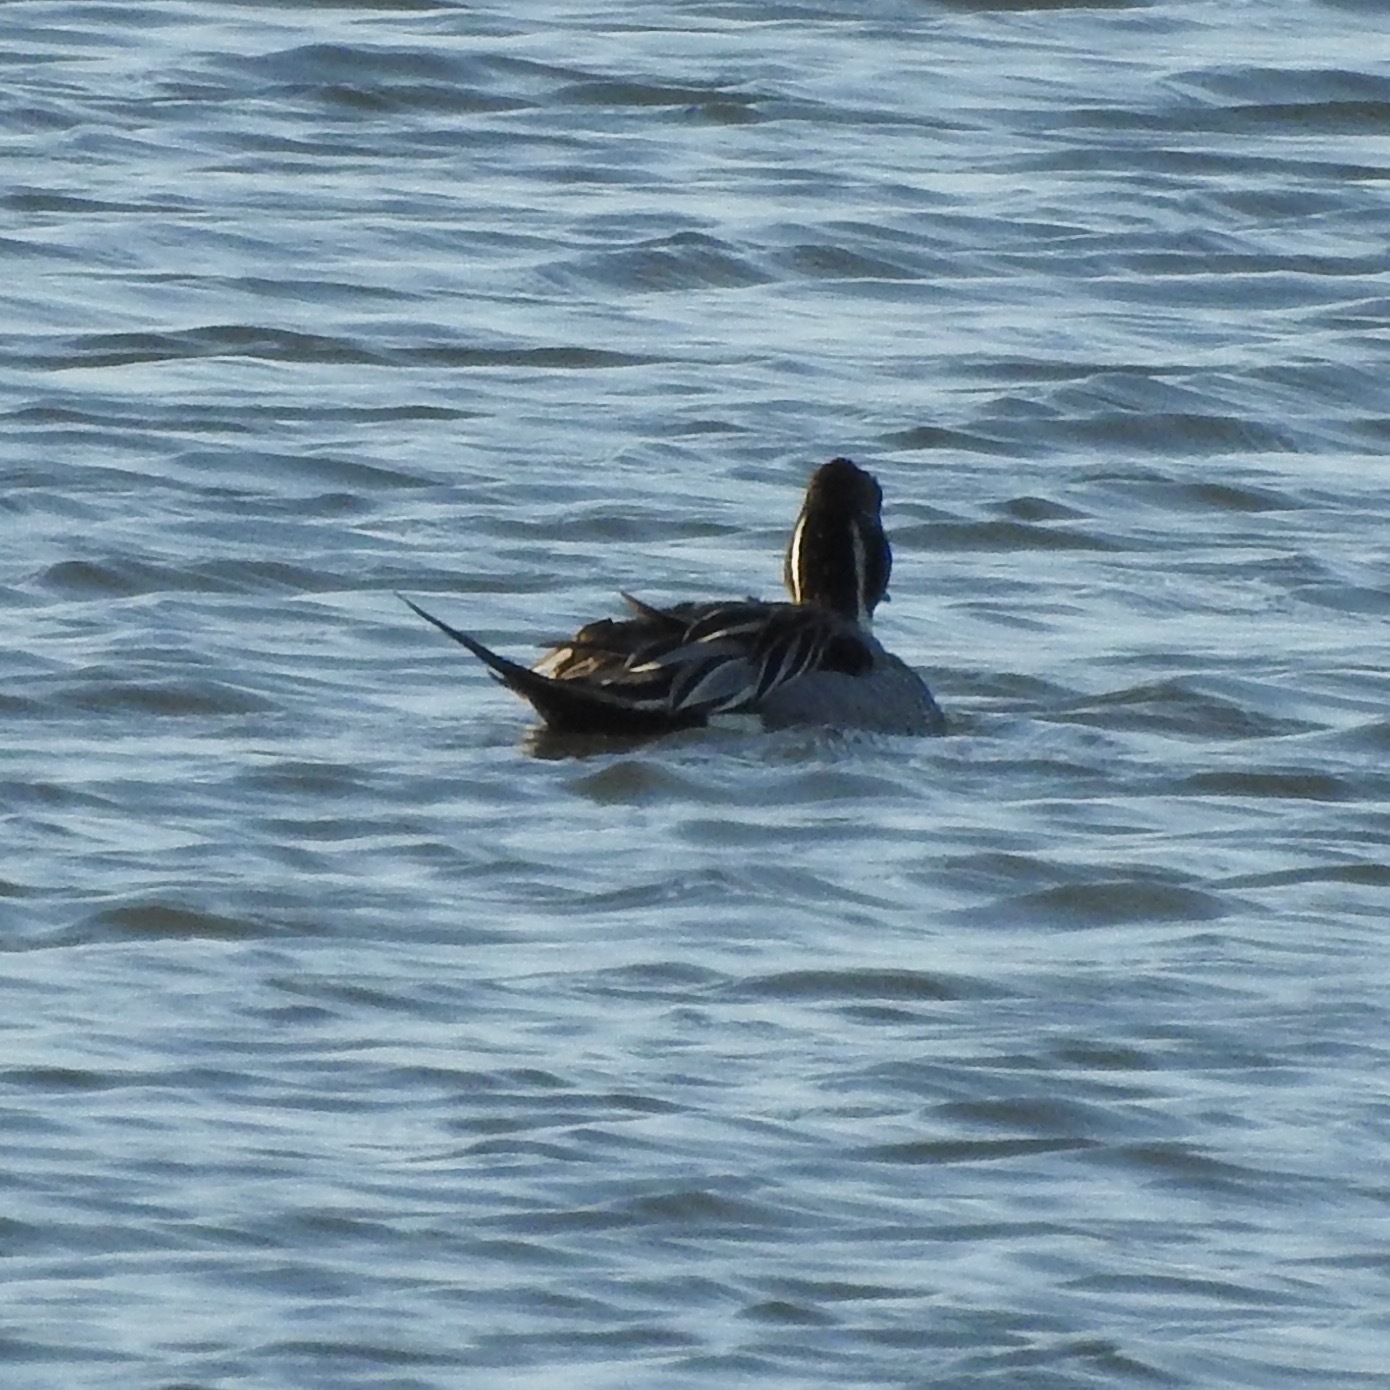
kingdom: Animalia
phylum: Chordata
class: Aves
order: Anseriformes
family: Anatidae
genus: Anas
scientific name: Anas acuta
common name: Northern pintail
